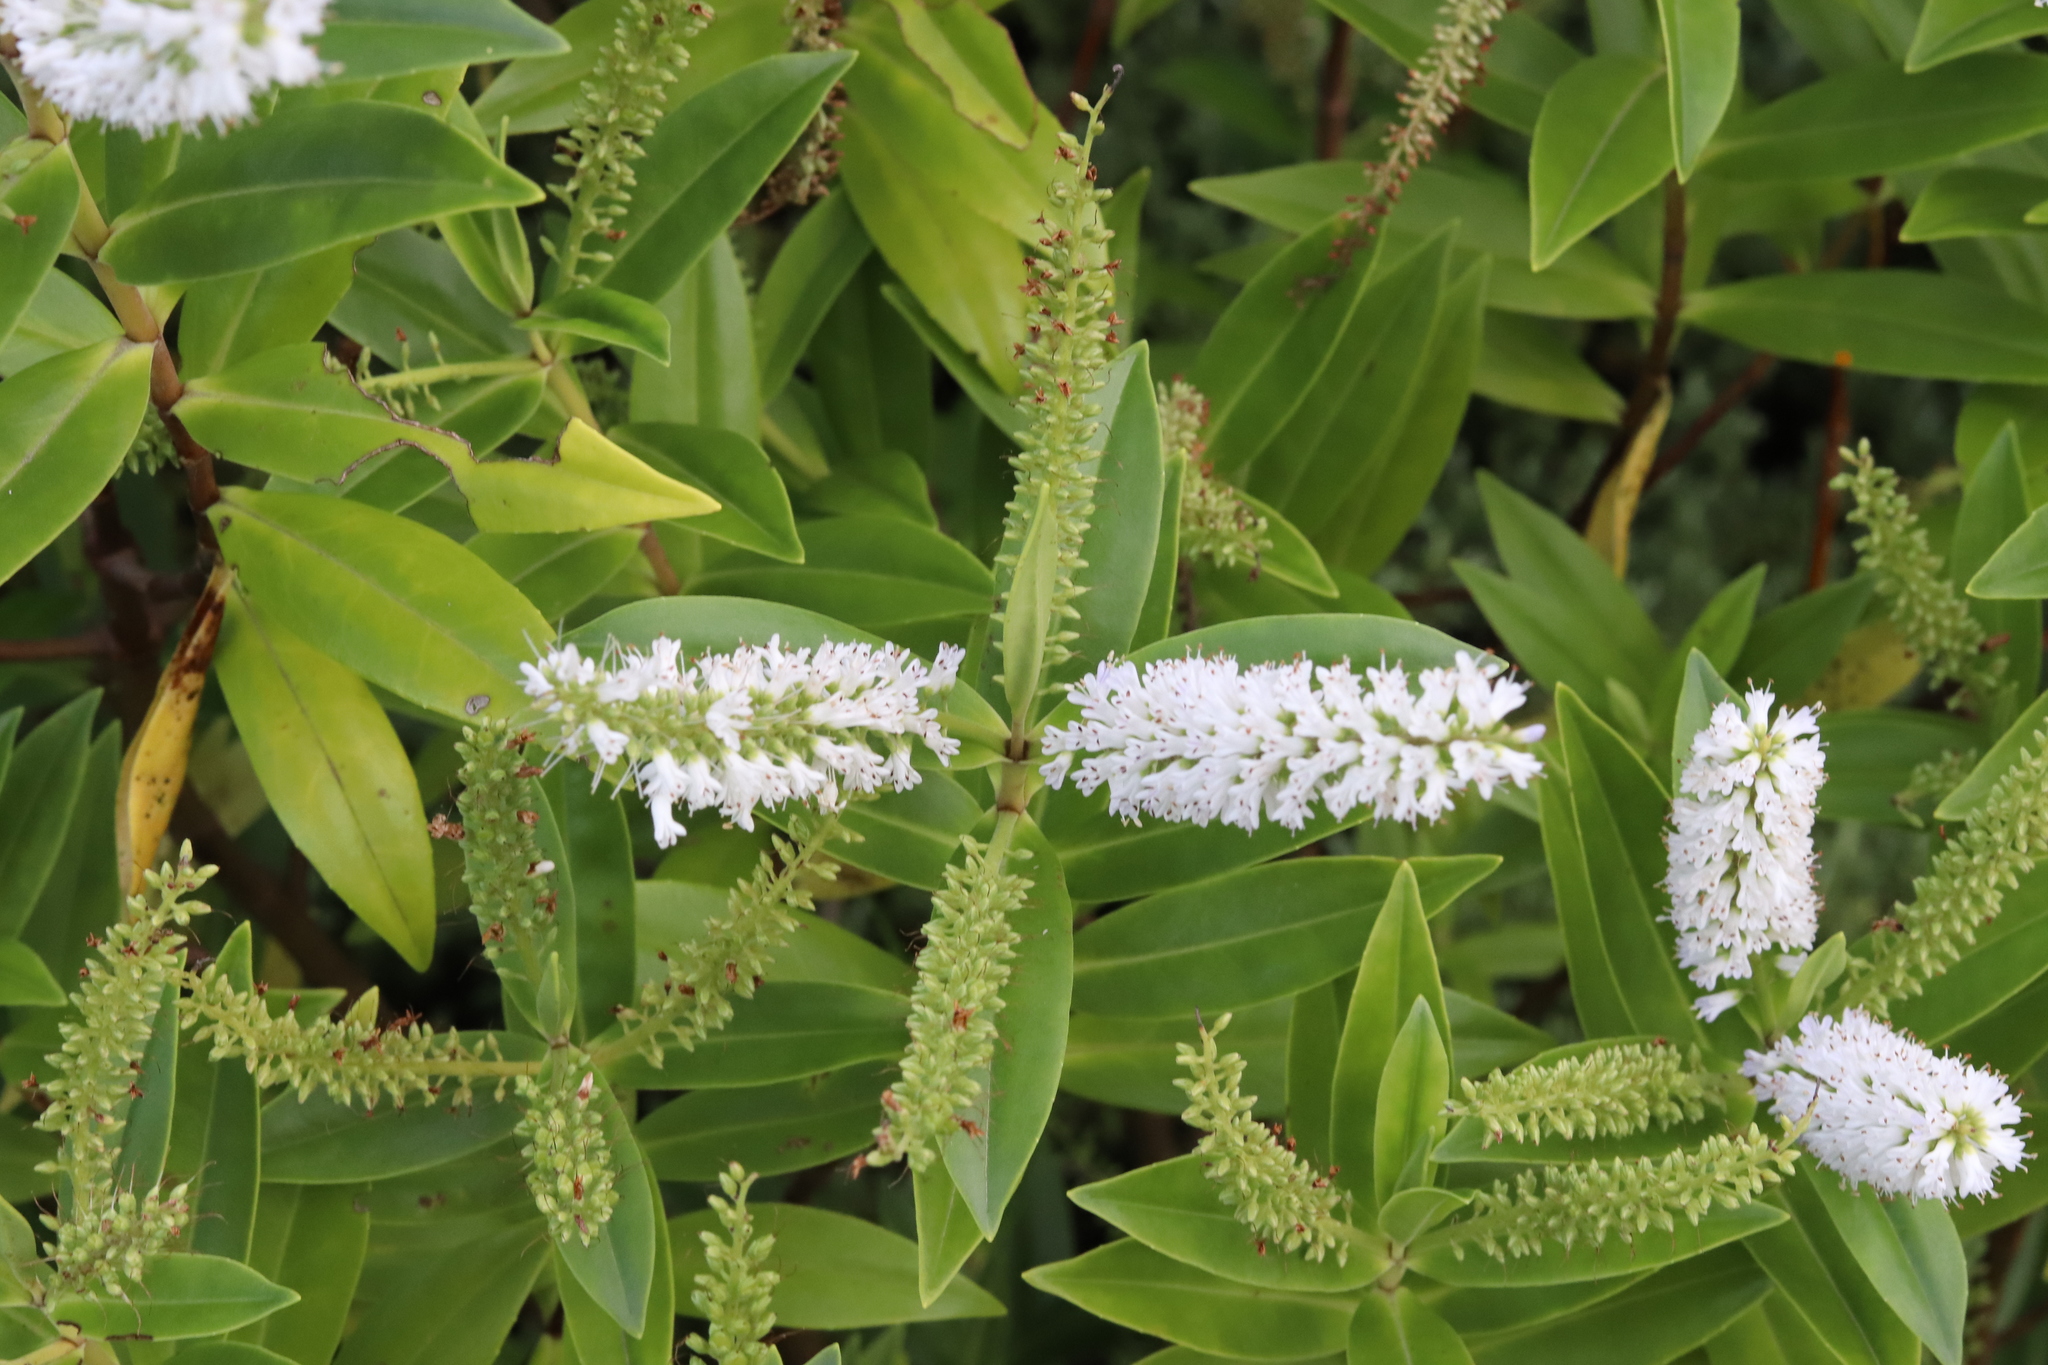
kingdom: Plantae
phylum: Tracheophyta
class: Magnoliopsida
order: Lamiales
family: Plantaginaceae
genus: Veronica
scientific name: Veronica stricta
